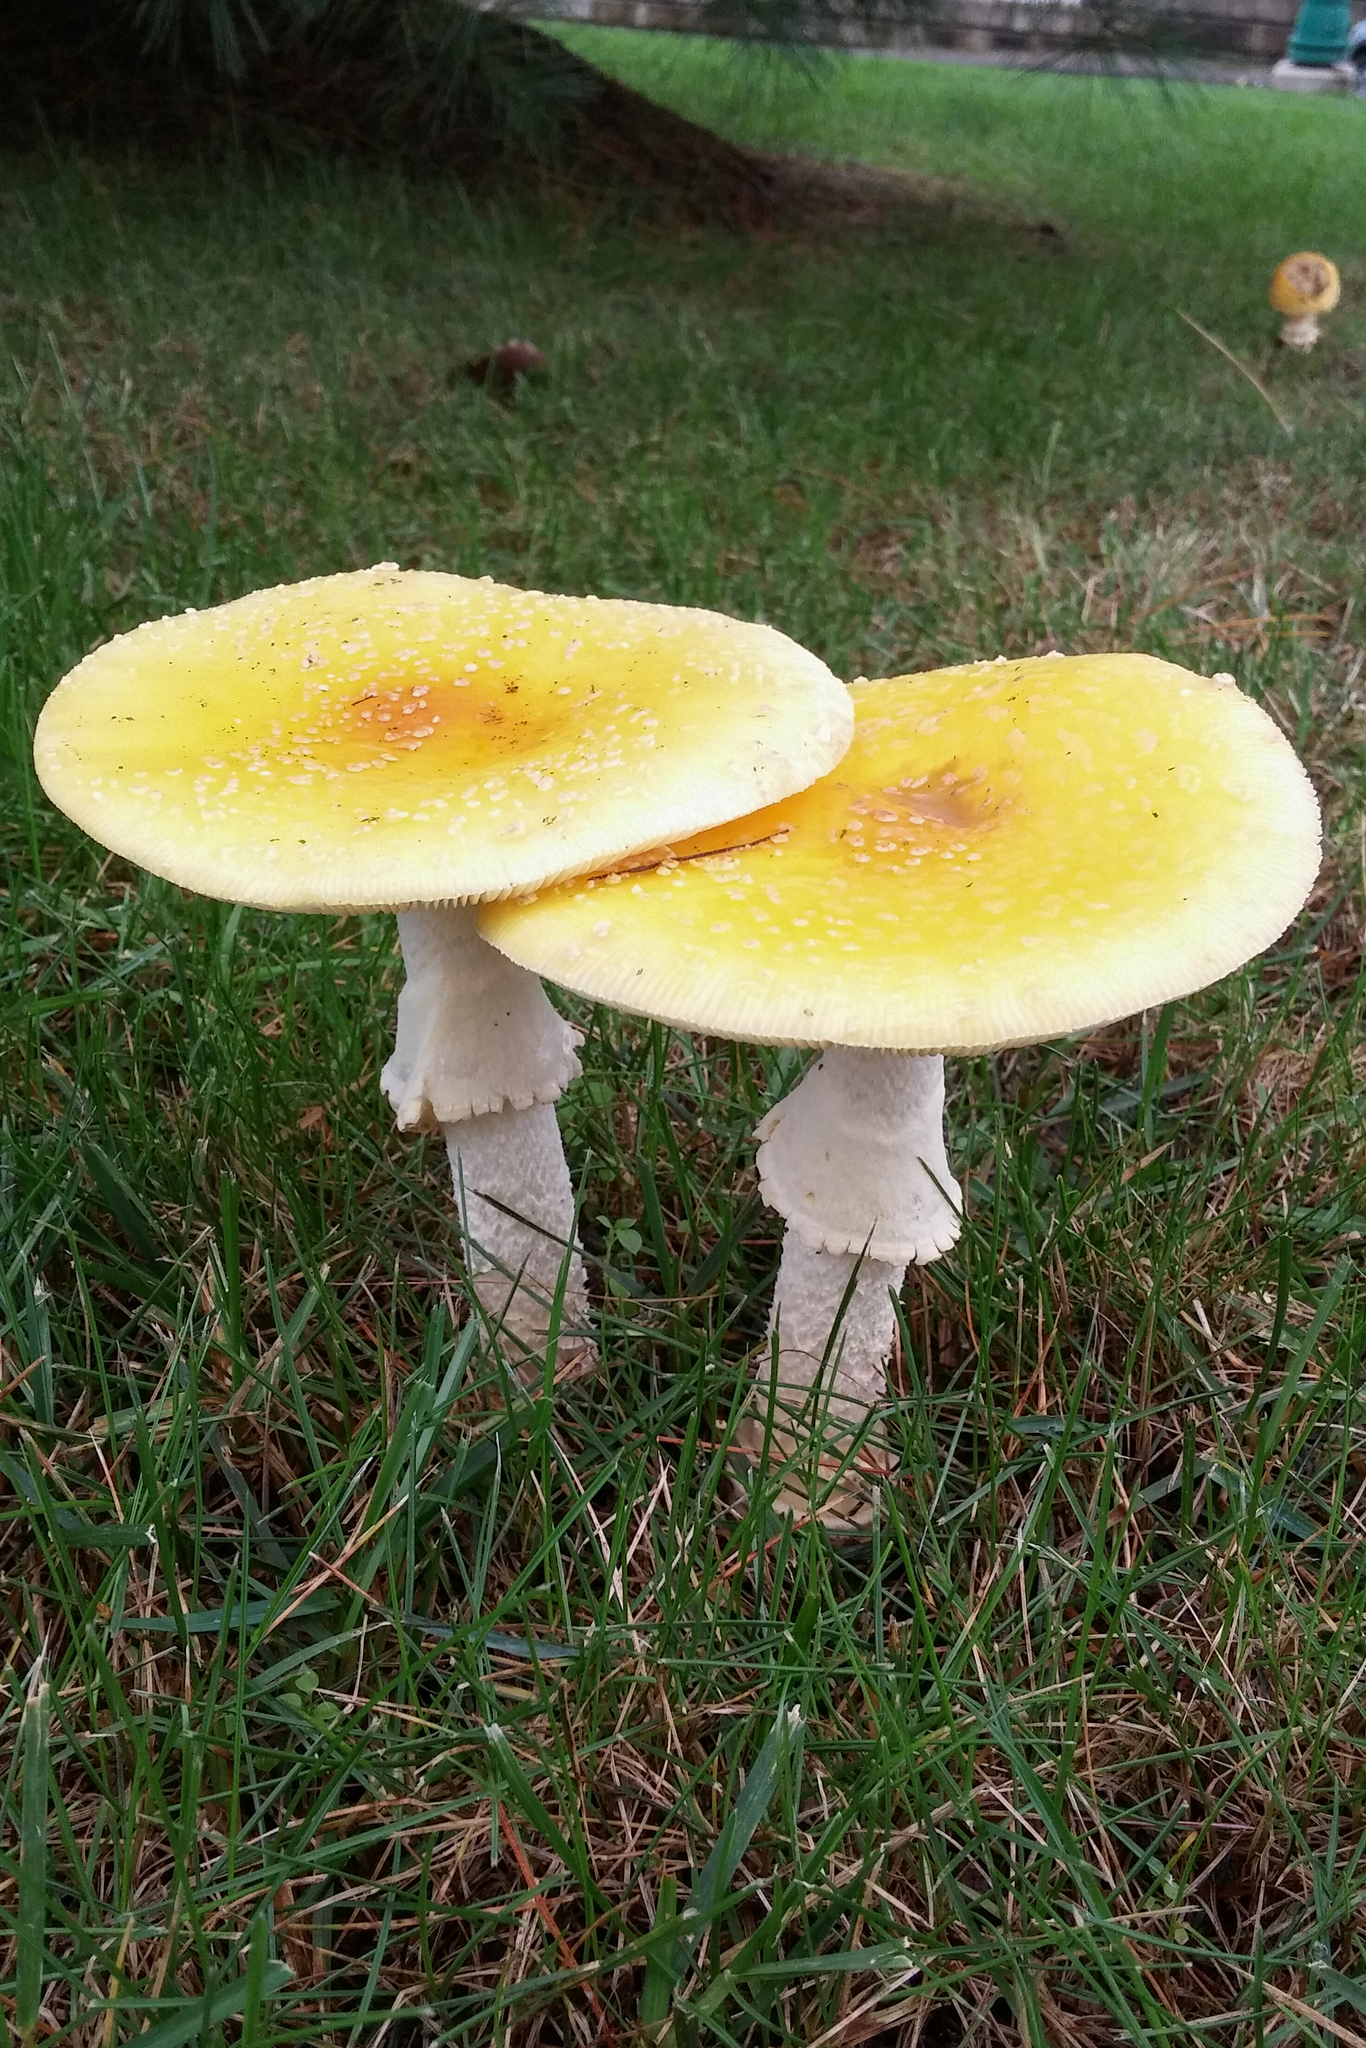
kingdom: Fungi
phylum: Basidiomycota
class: Agaricomycetes
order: Agaricales
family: Amanitaceae
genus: Amanita
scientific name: Amanita muscaria
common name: Fly agaric
